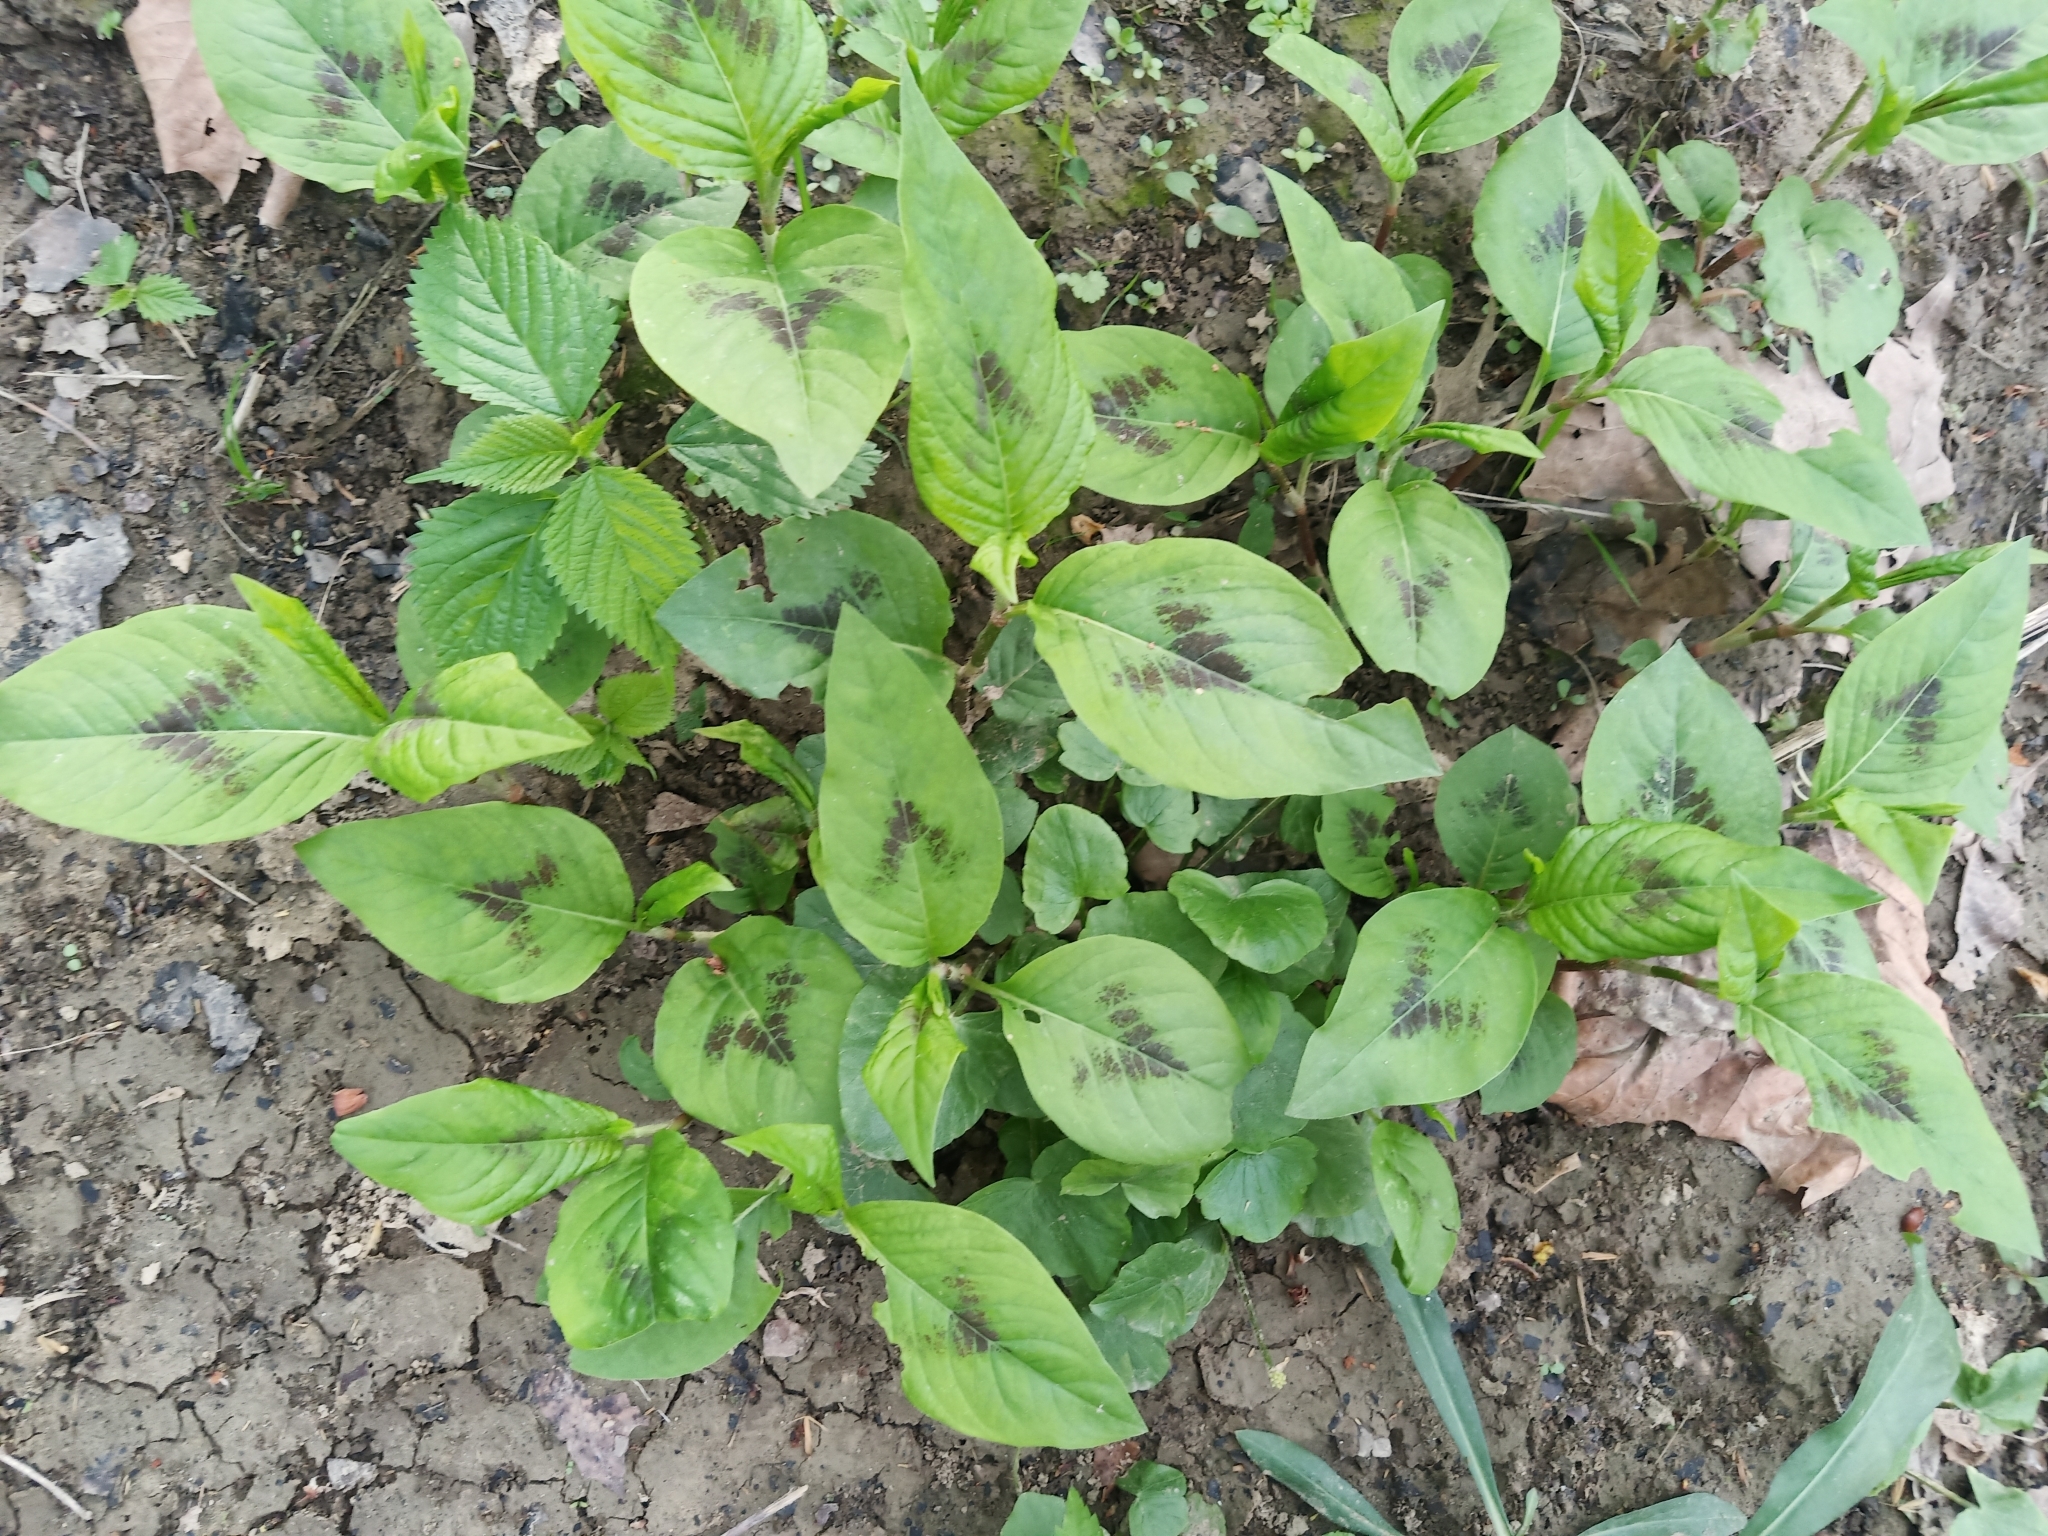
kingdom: Plantae
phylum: Tracheophyta
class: Magnoliopsida
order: Caryophyllales
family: Polygonaceae
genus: Persicaria
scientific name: Persicaria virginiana
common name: Jumpseed
